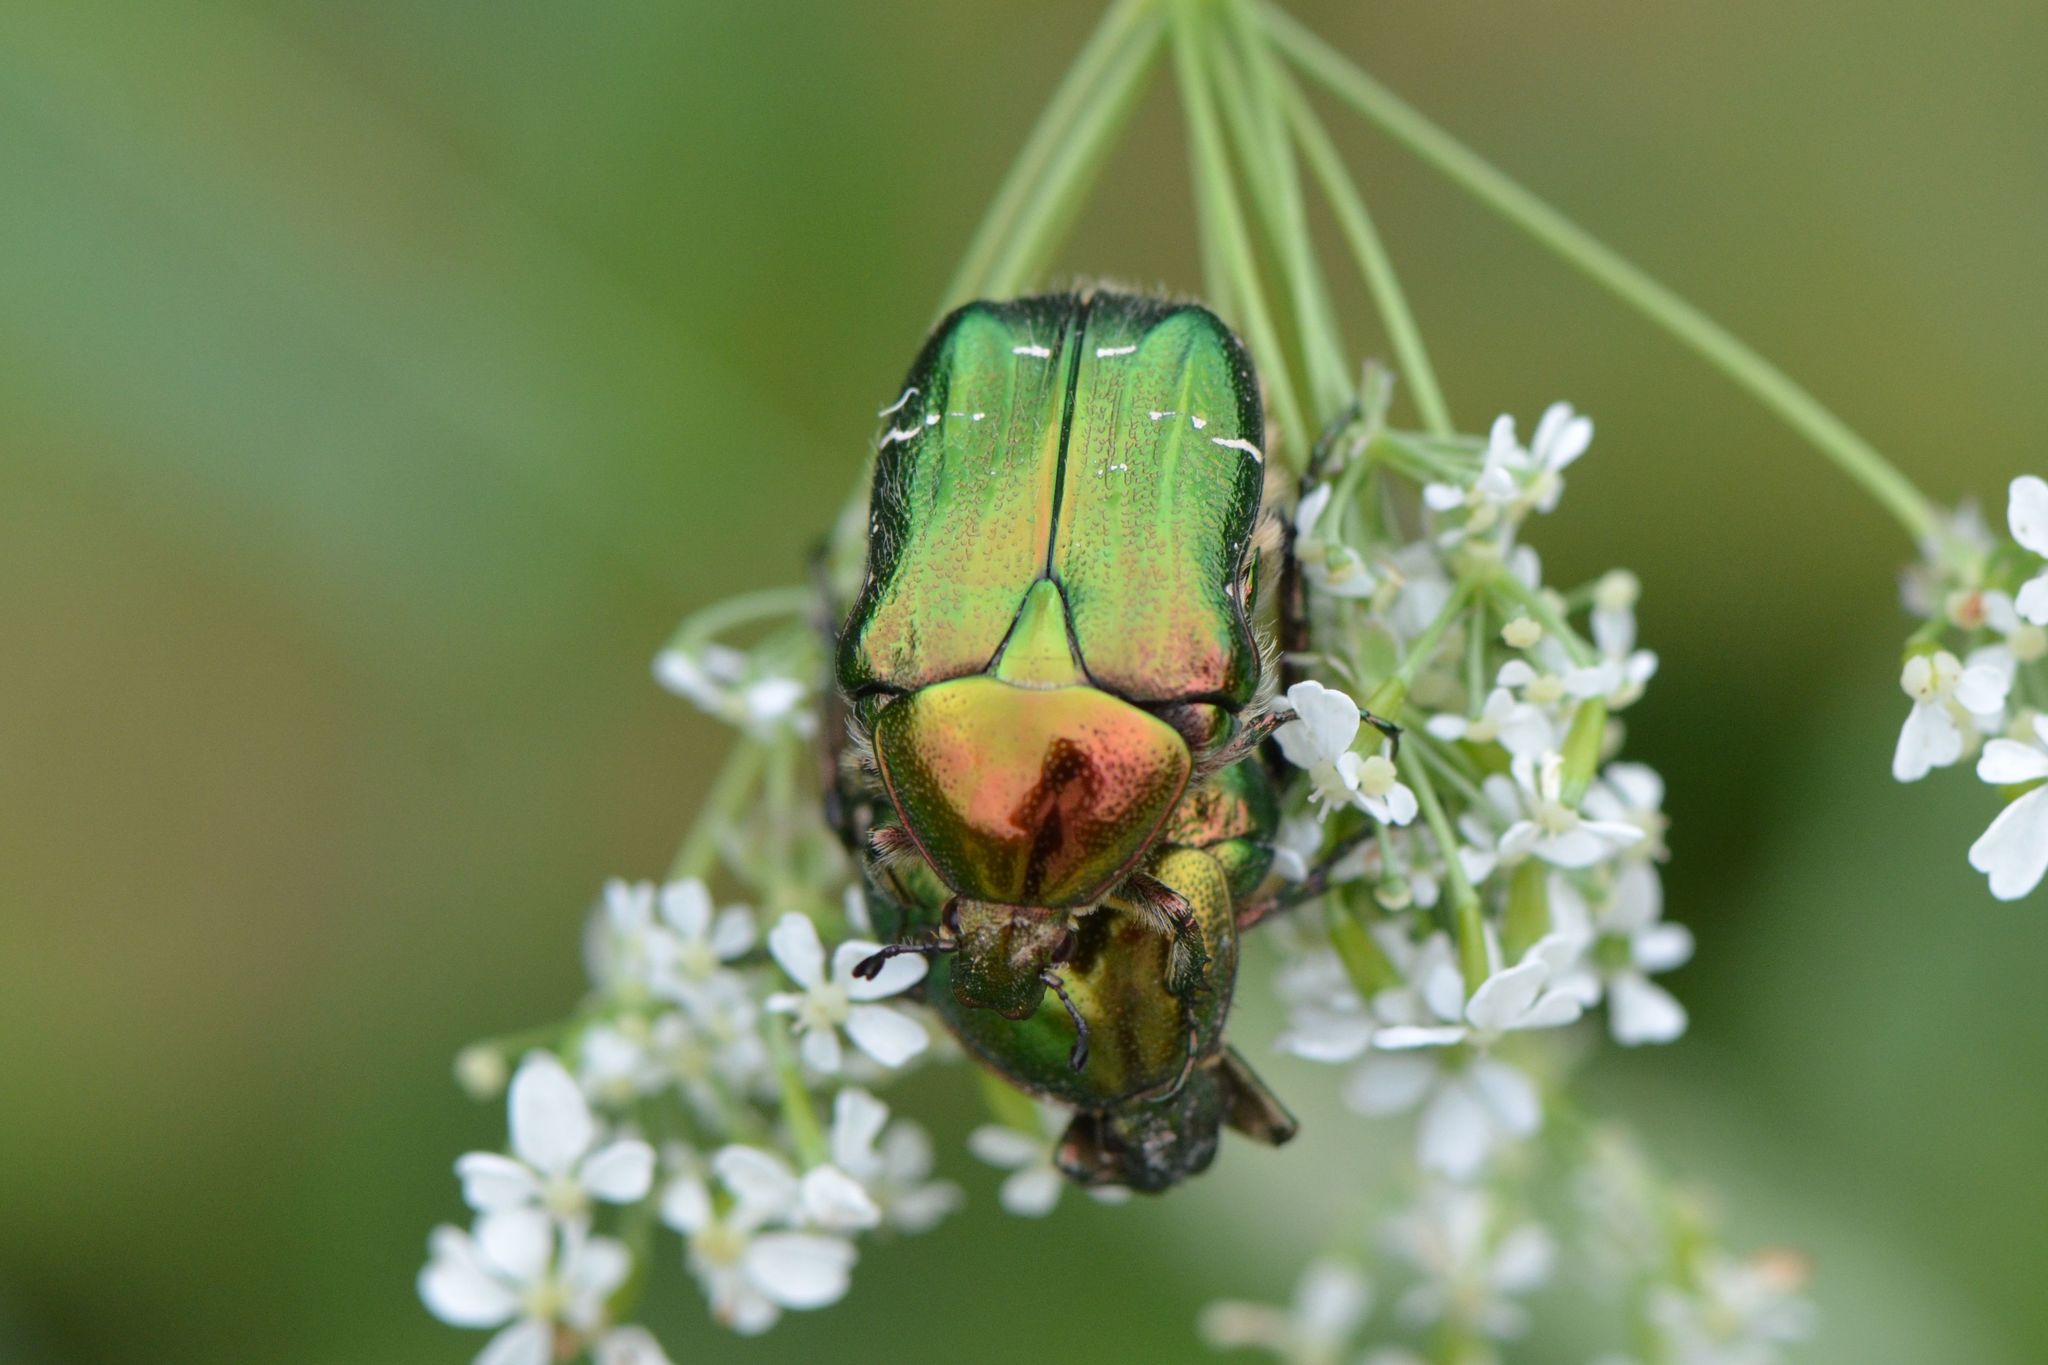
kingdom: Animalia
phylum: Arthropoda
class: Insecta
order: Coleoptera
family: Scarabaeidae
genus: Cetonia
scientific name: Cetonia aurata
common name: Rose chafer
